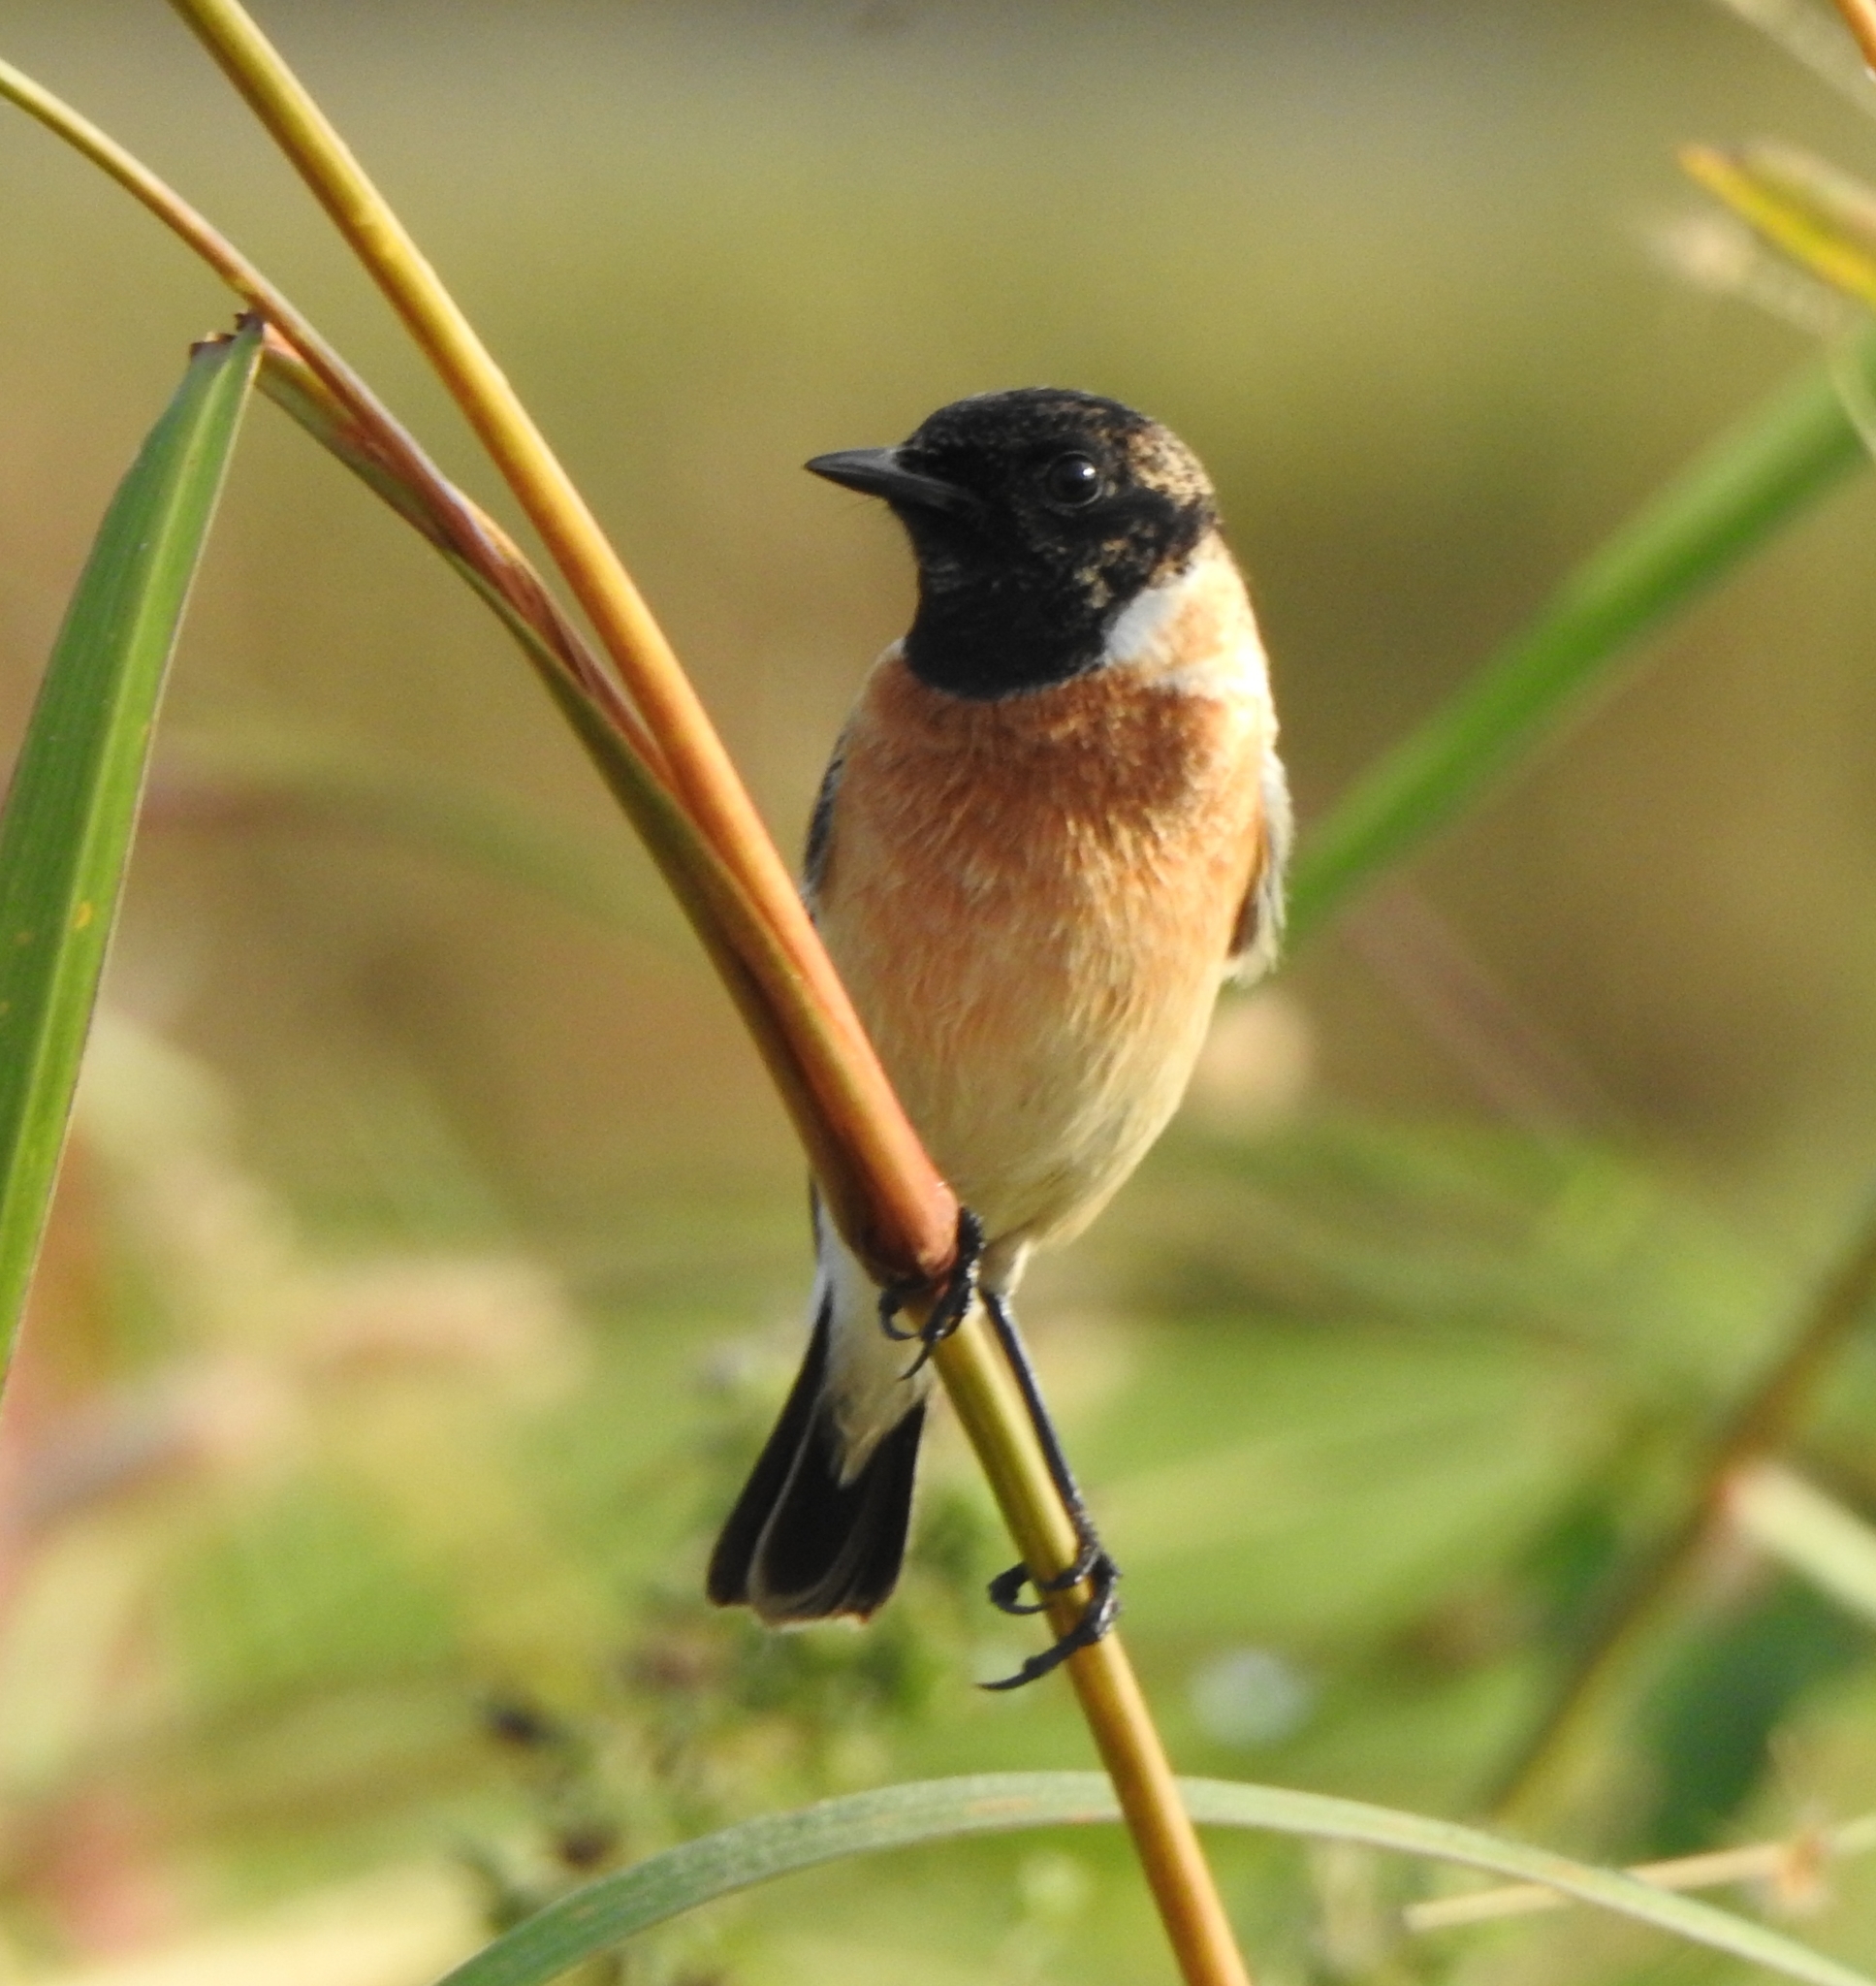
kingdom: Animalia
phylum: Chordata
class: Aves
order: Passeriformes
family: Muscicapidae
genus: Saxicola
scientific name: Saxicola maurus
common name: Siberian stonechat
